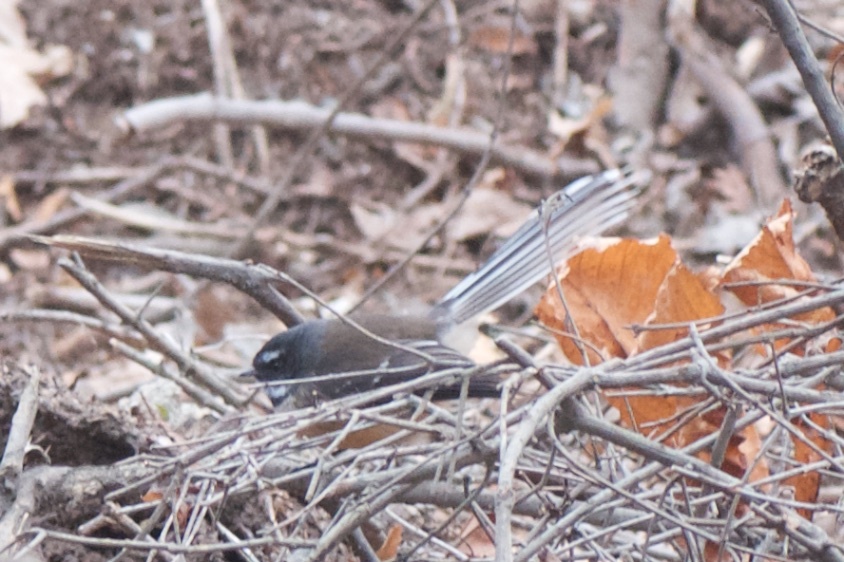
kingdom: Animalia
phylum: Chordata
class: Aves
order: Passeriformes
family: Rhipiduridae
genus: Rhipidura
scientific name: Rhipidura fuliginosa
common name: New zealand fantail
